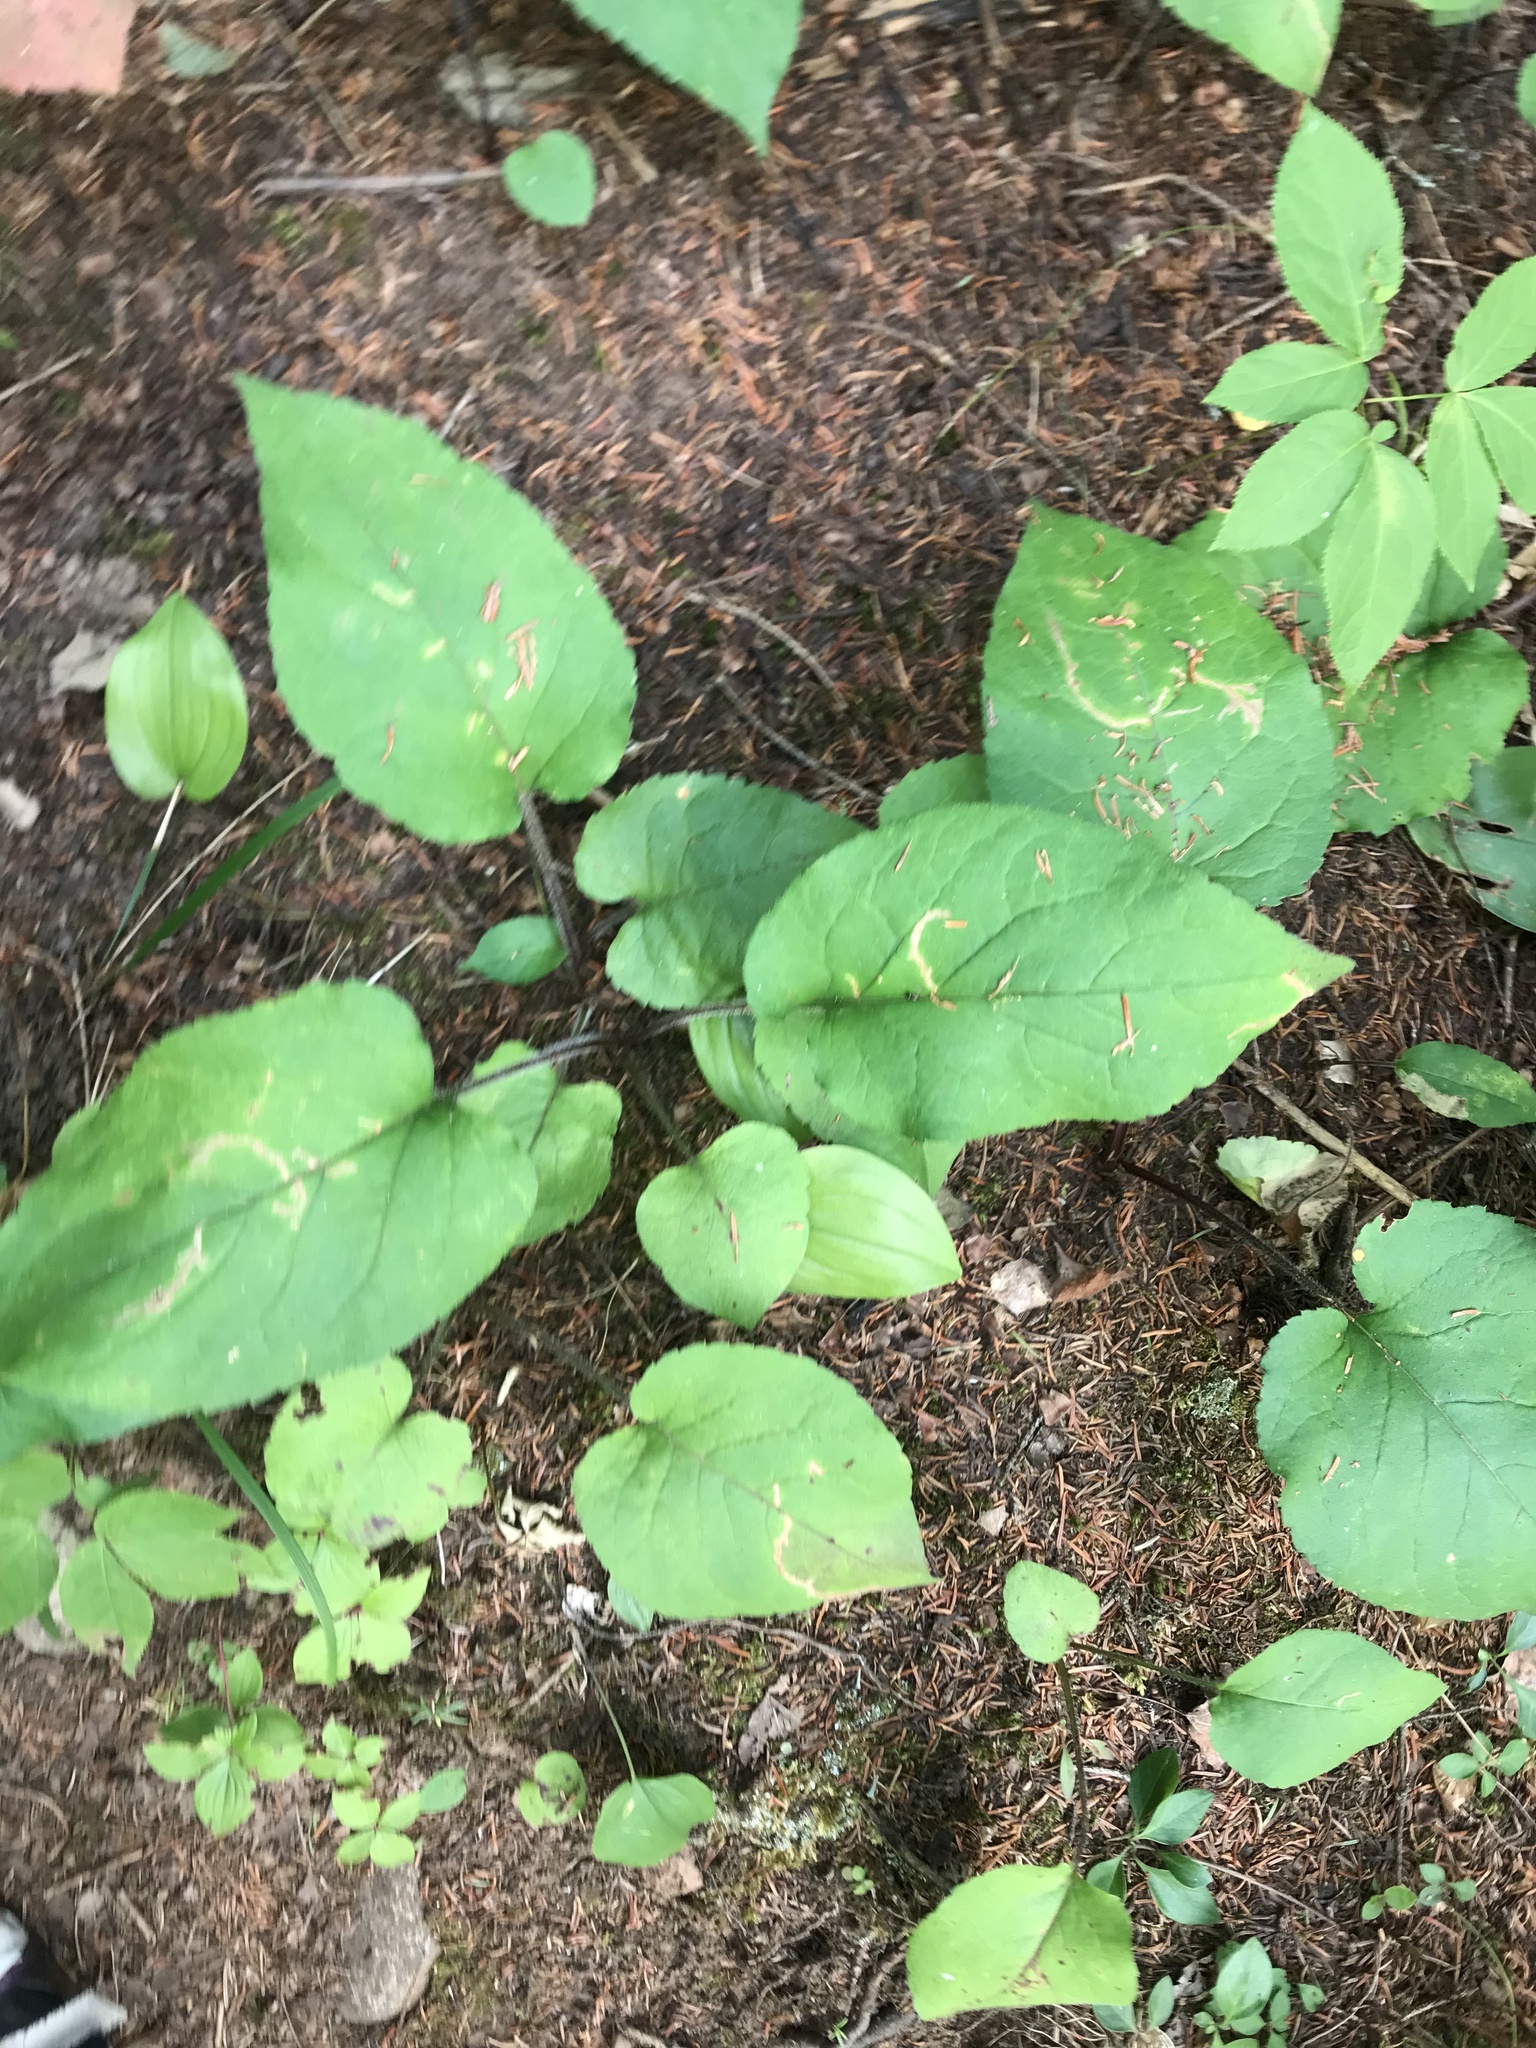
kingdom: Plantae
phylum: Tracheophyta
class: Magnoliopsida
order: Asterales
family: Asteraceae
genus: Eurybia
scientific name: Eurybia macrophylla
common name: Big-leaved aster
